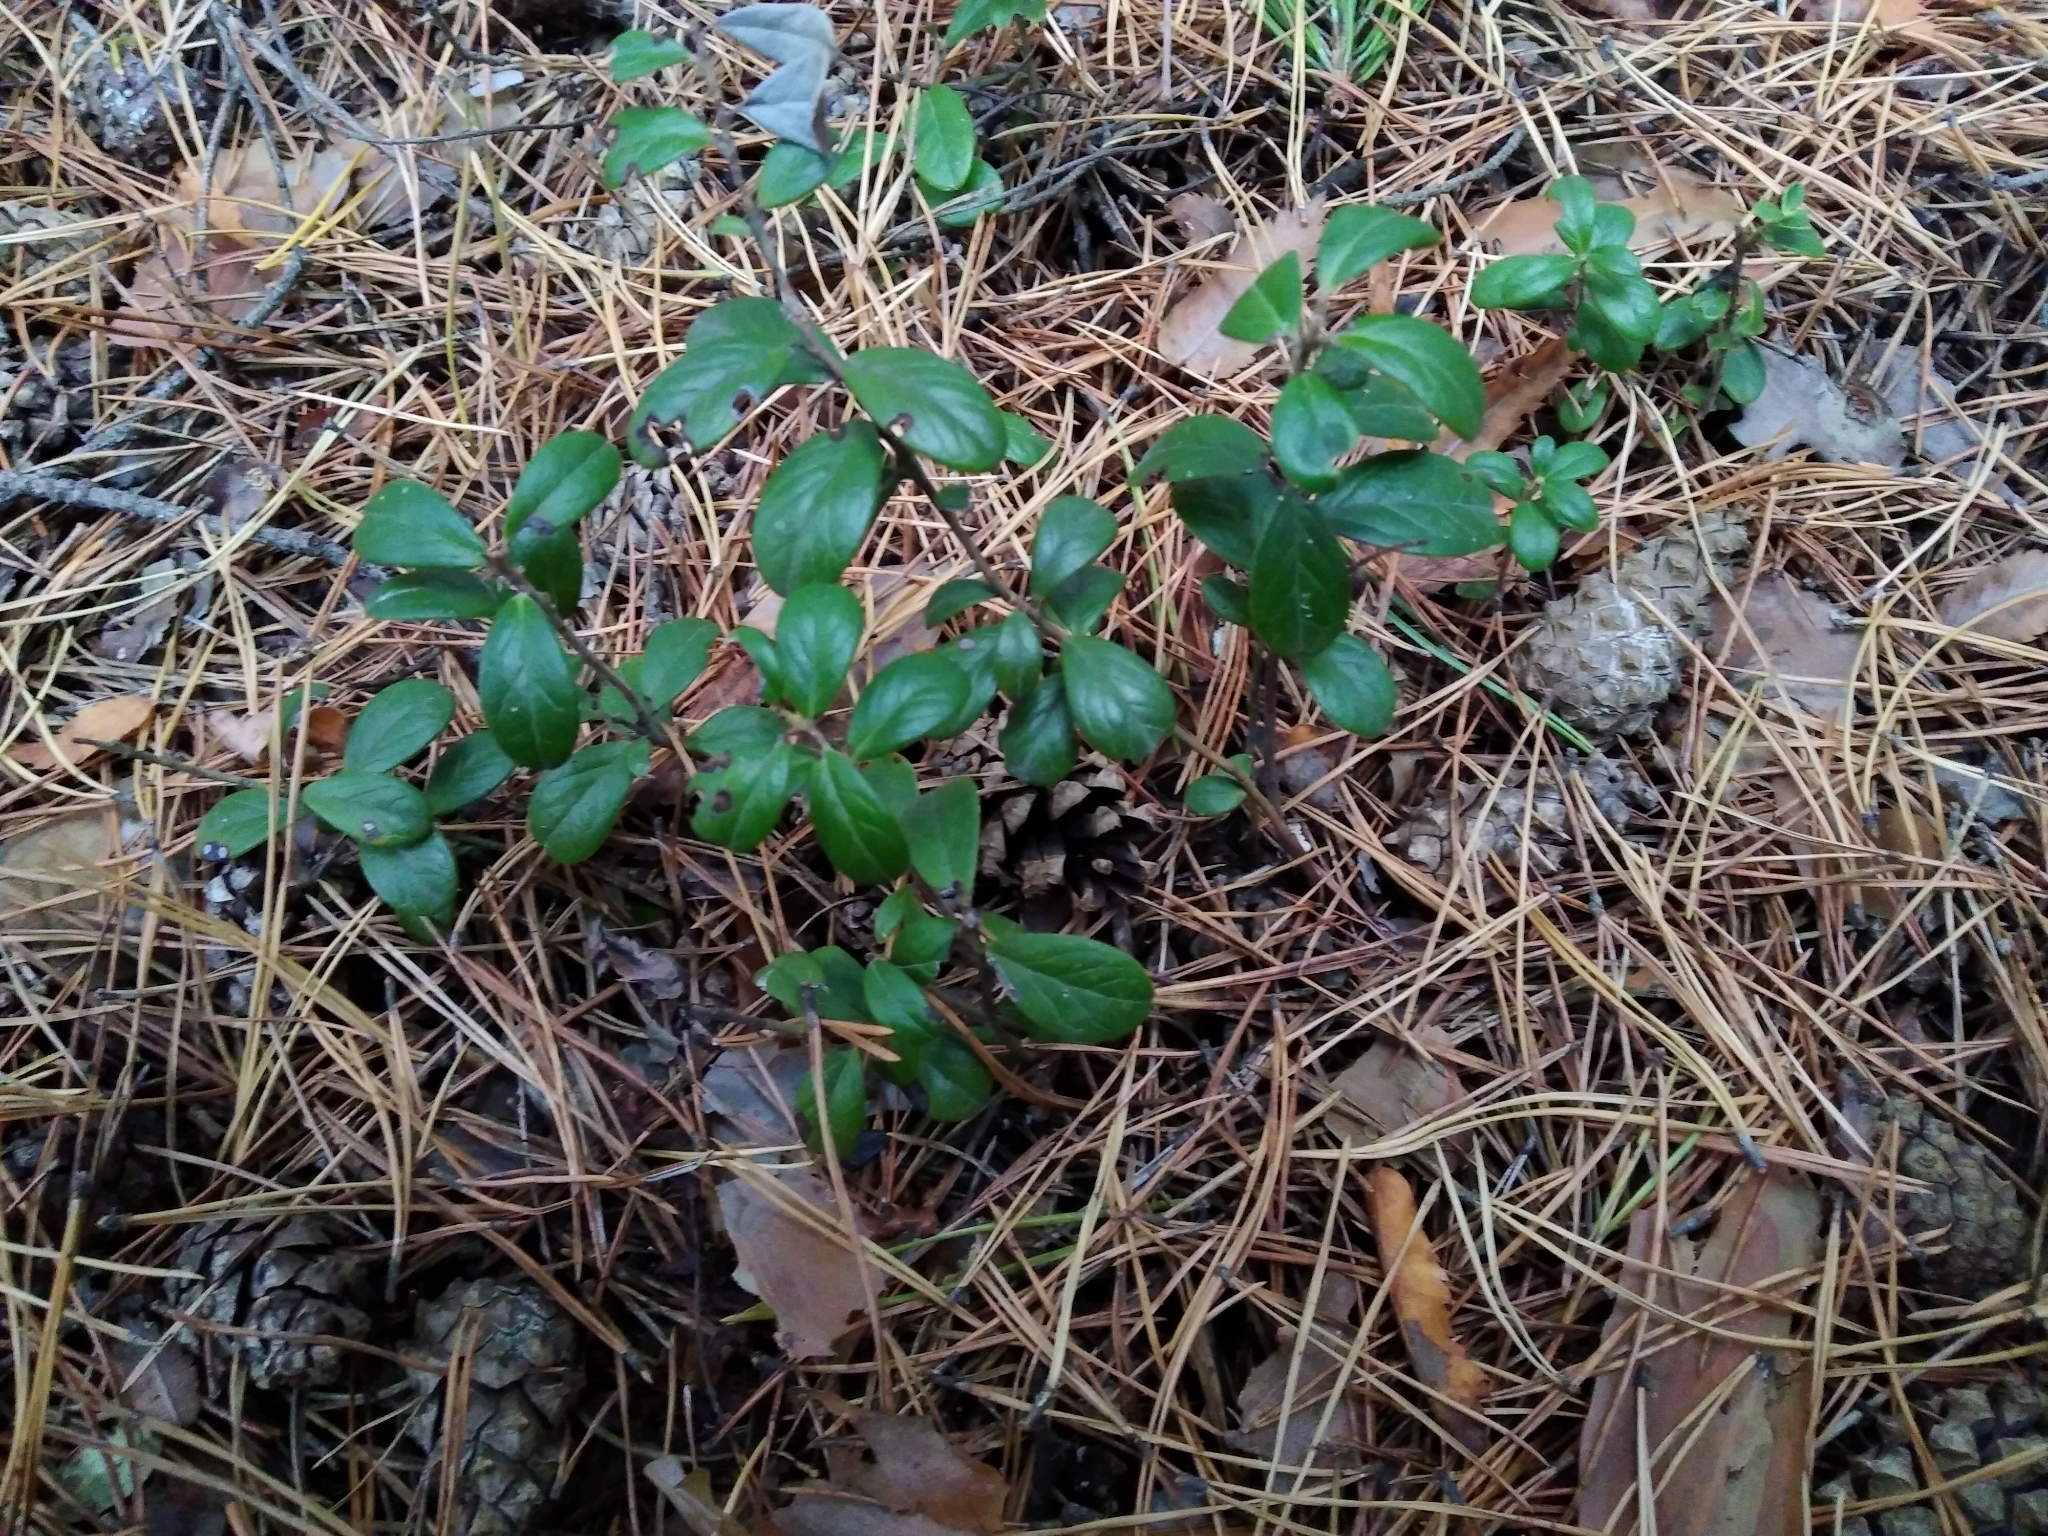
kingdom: Plantae
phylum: Tracheophyta
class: Magnoliopsida
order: Ericales
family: Ericaceae
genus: Vaccinium
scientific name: Vaccinium vitis-idaea
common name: Cowberry
